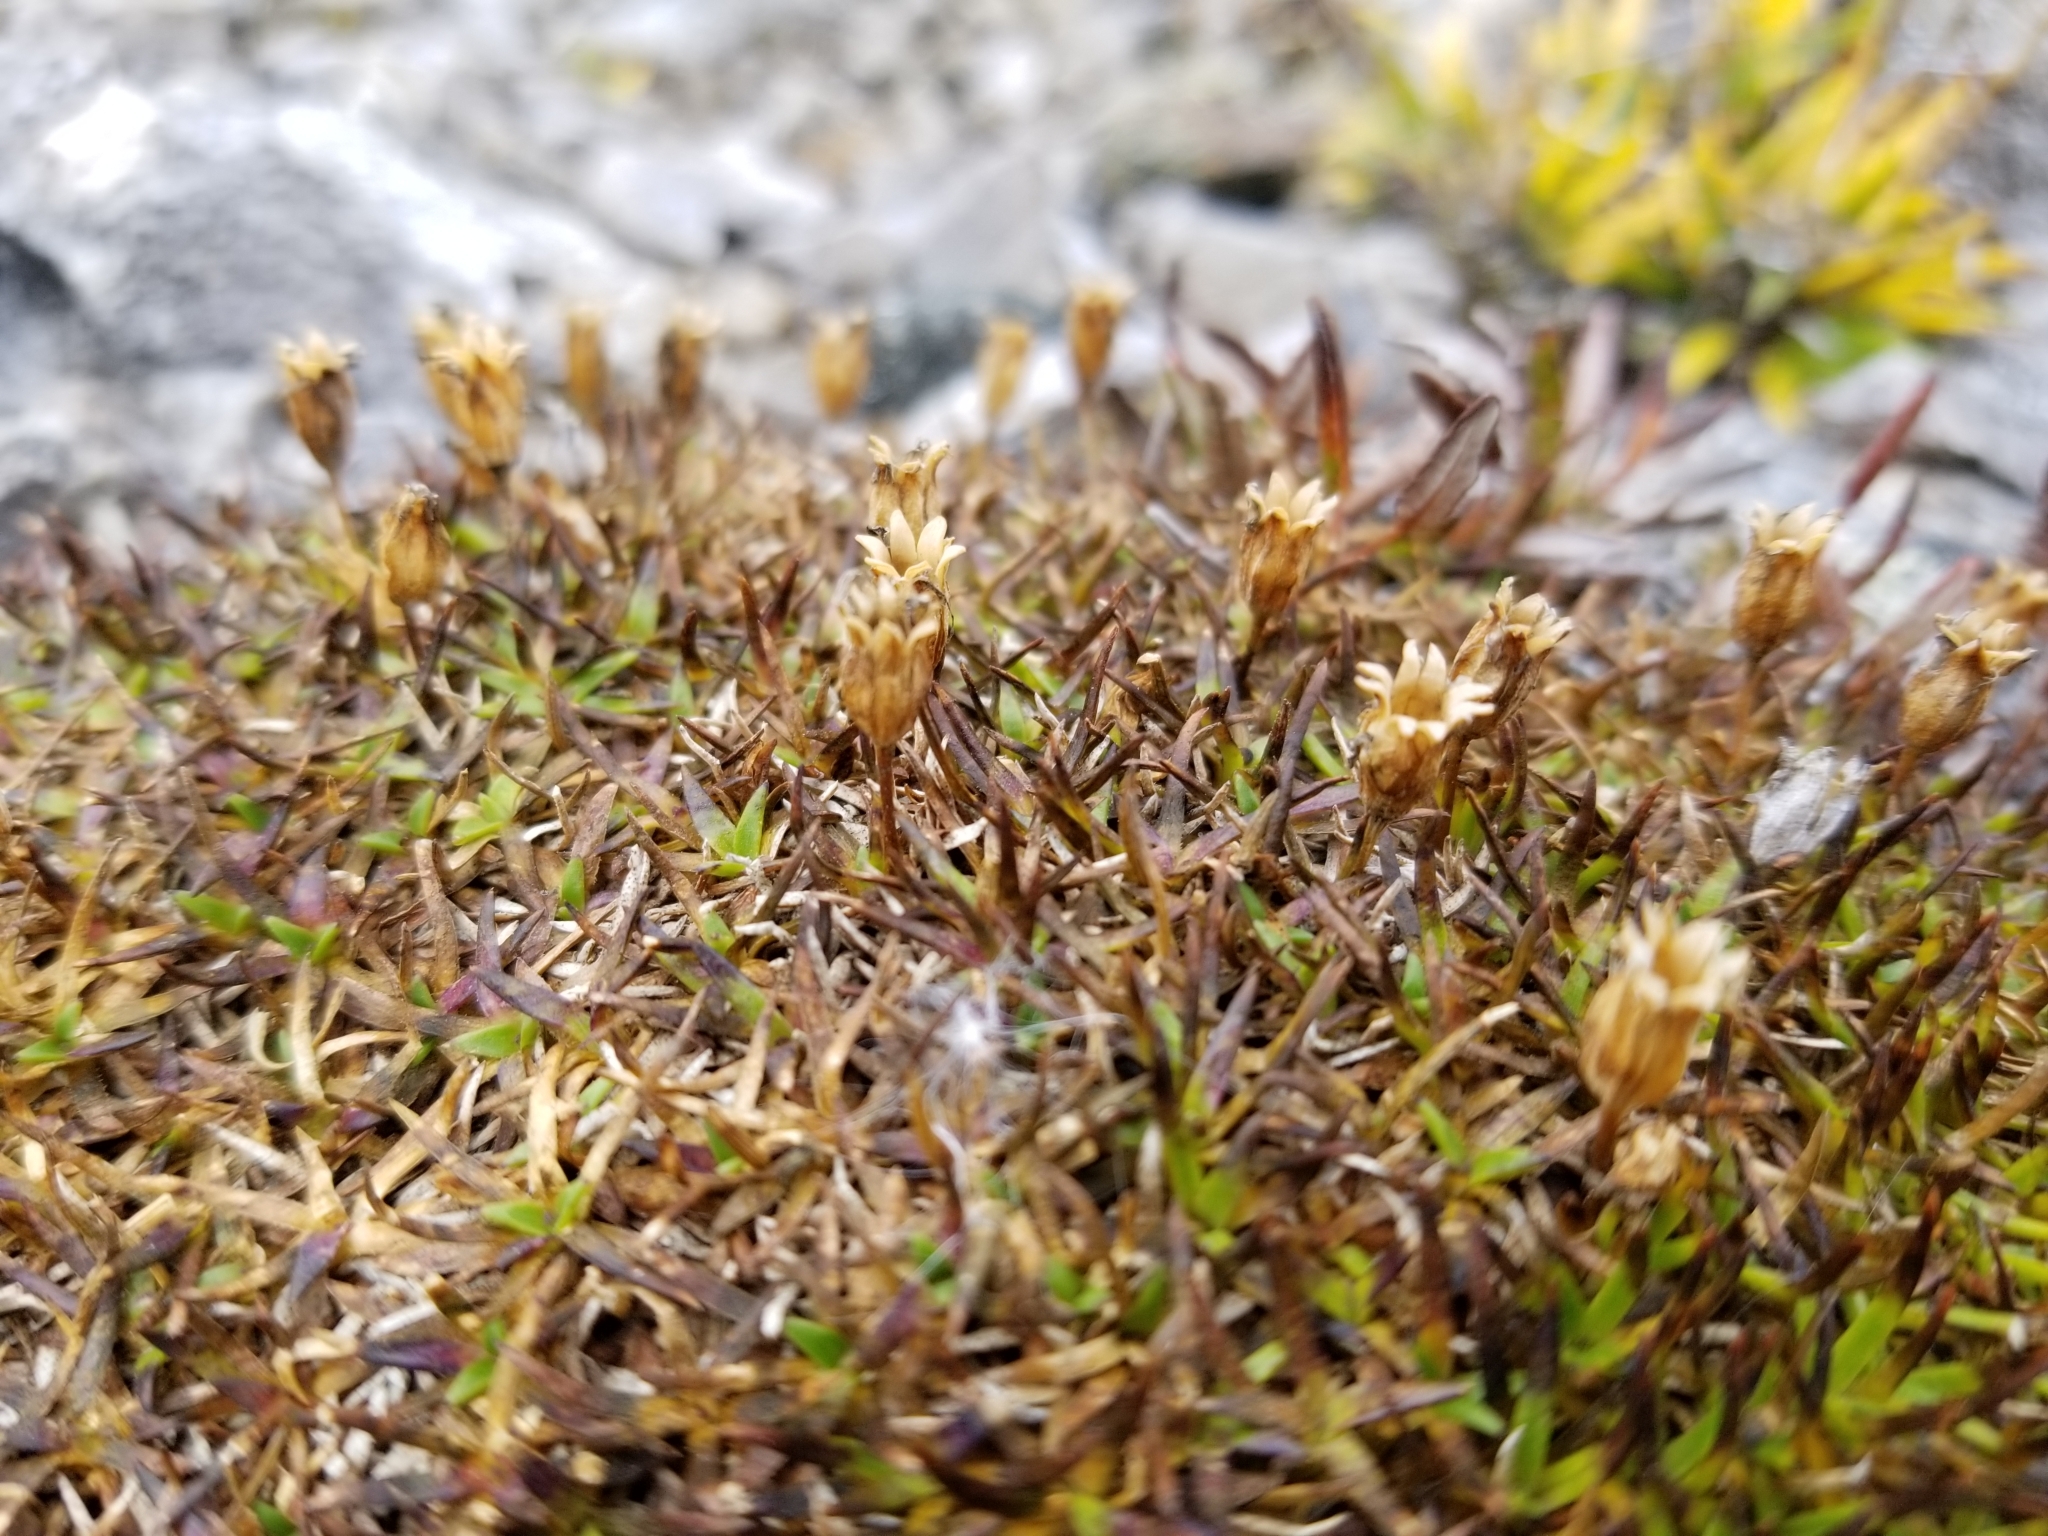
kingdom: Plantae
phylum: Tracheophyta
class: Magnoliopsida
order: Caryophyllales
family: Caryophyllaceae
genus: Silene
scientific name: Silene acaulis
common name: Moss campion
